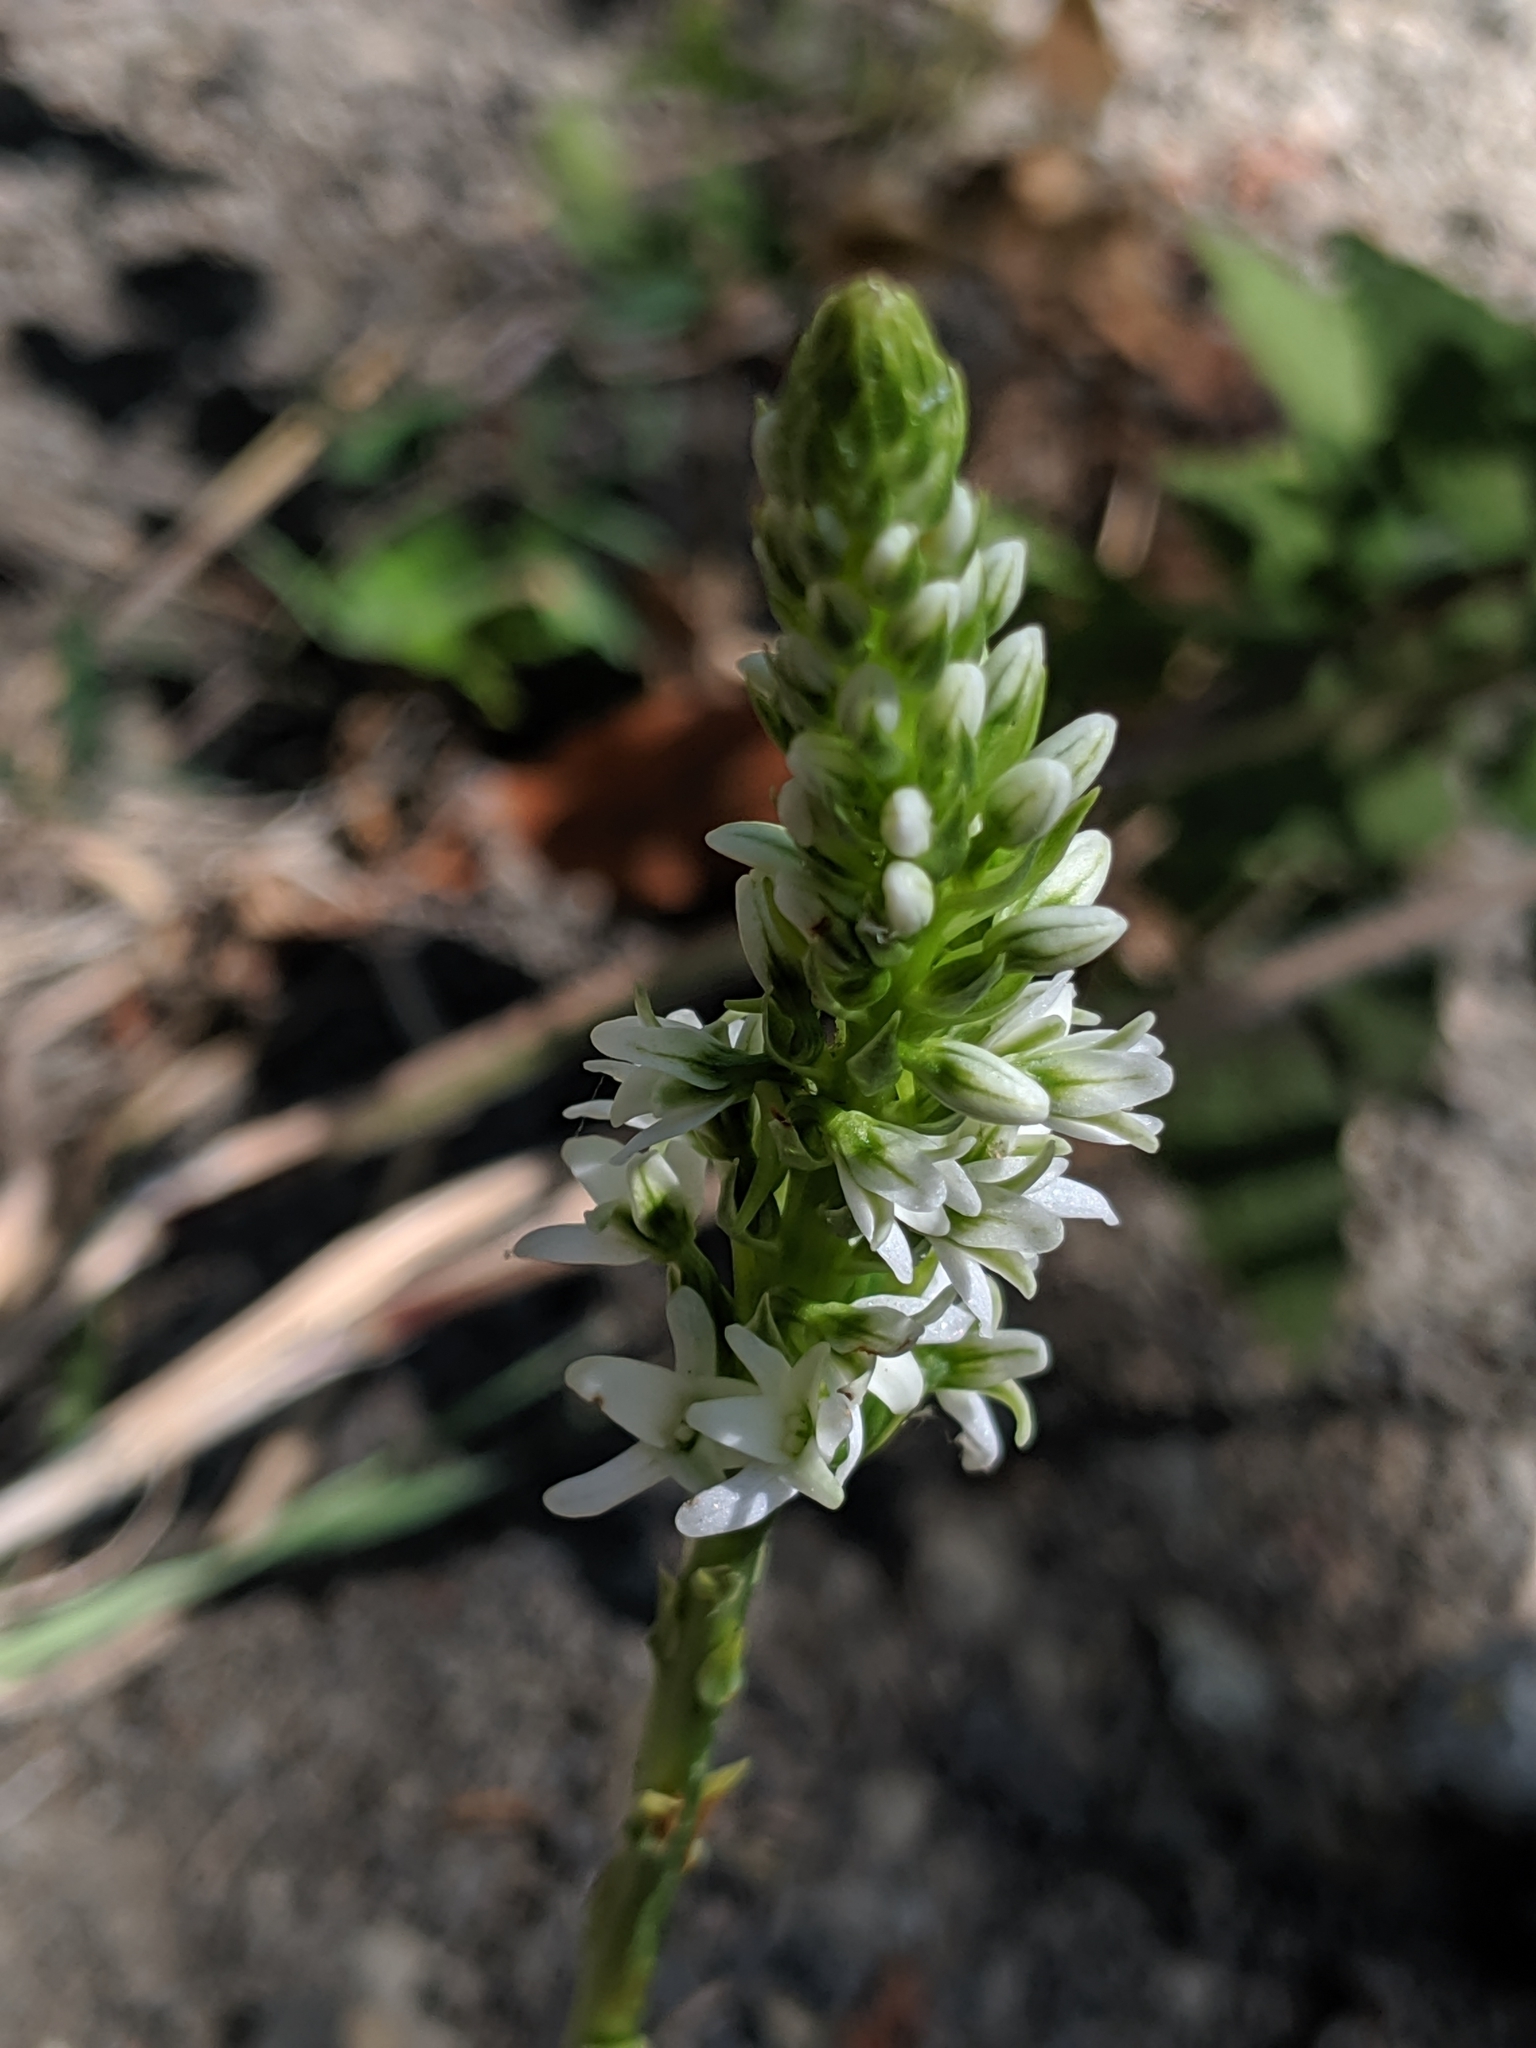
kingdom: Plantae
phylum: Tracheophyta
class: Liliopsida
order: Asparagales
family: Orchidaceae
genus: Platanthera
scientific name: Platanthera elegans
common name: Coast piperia
